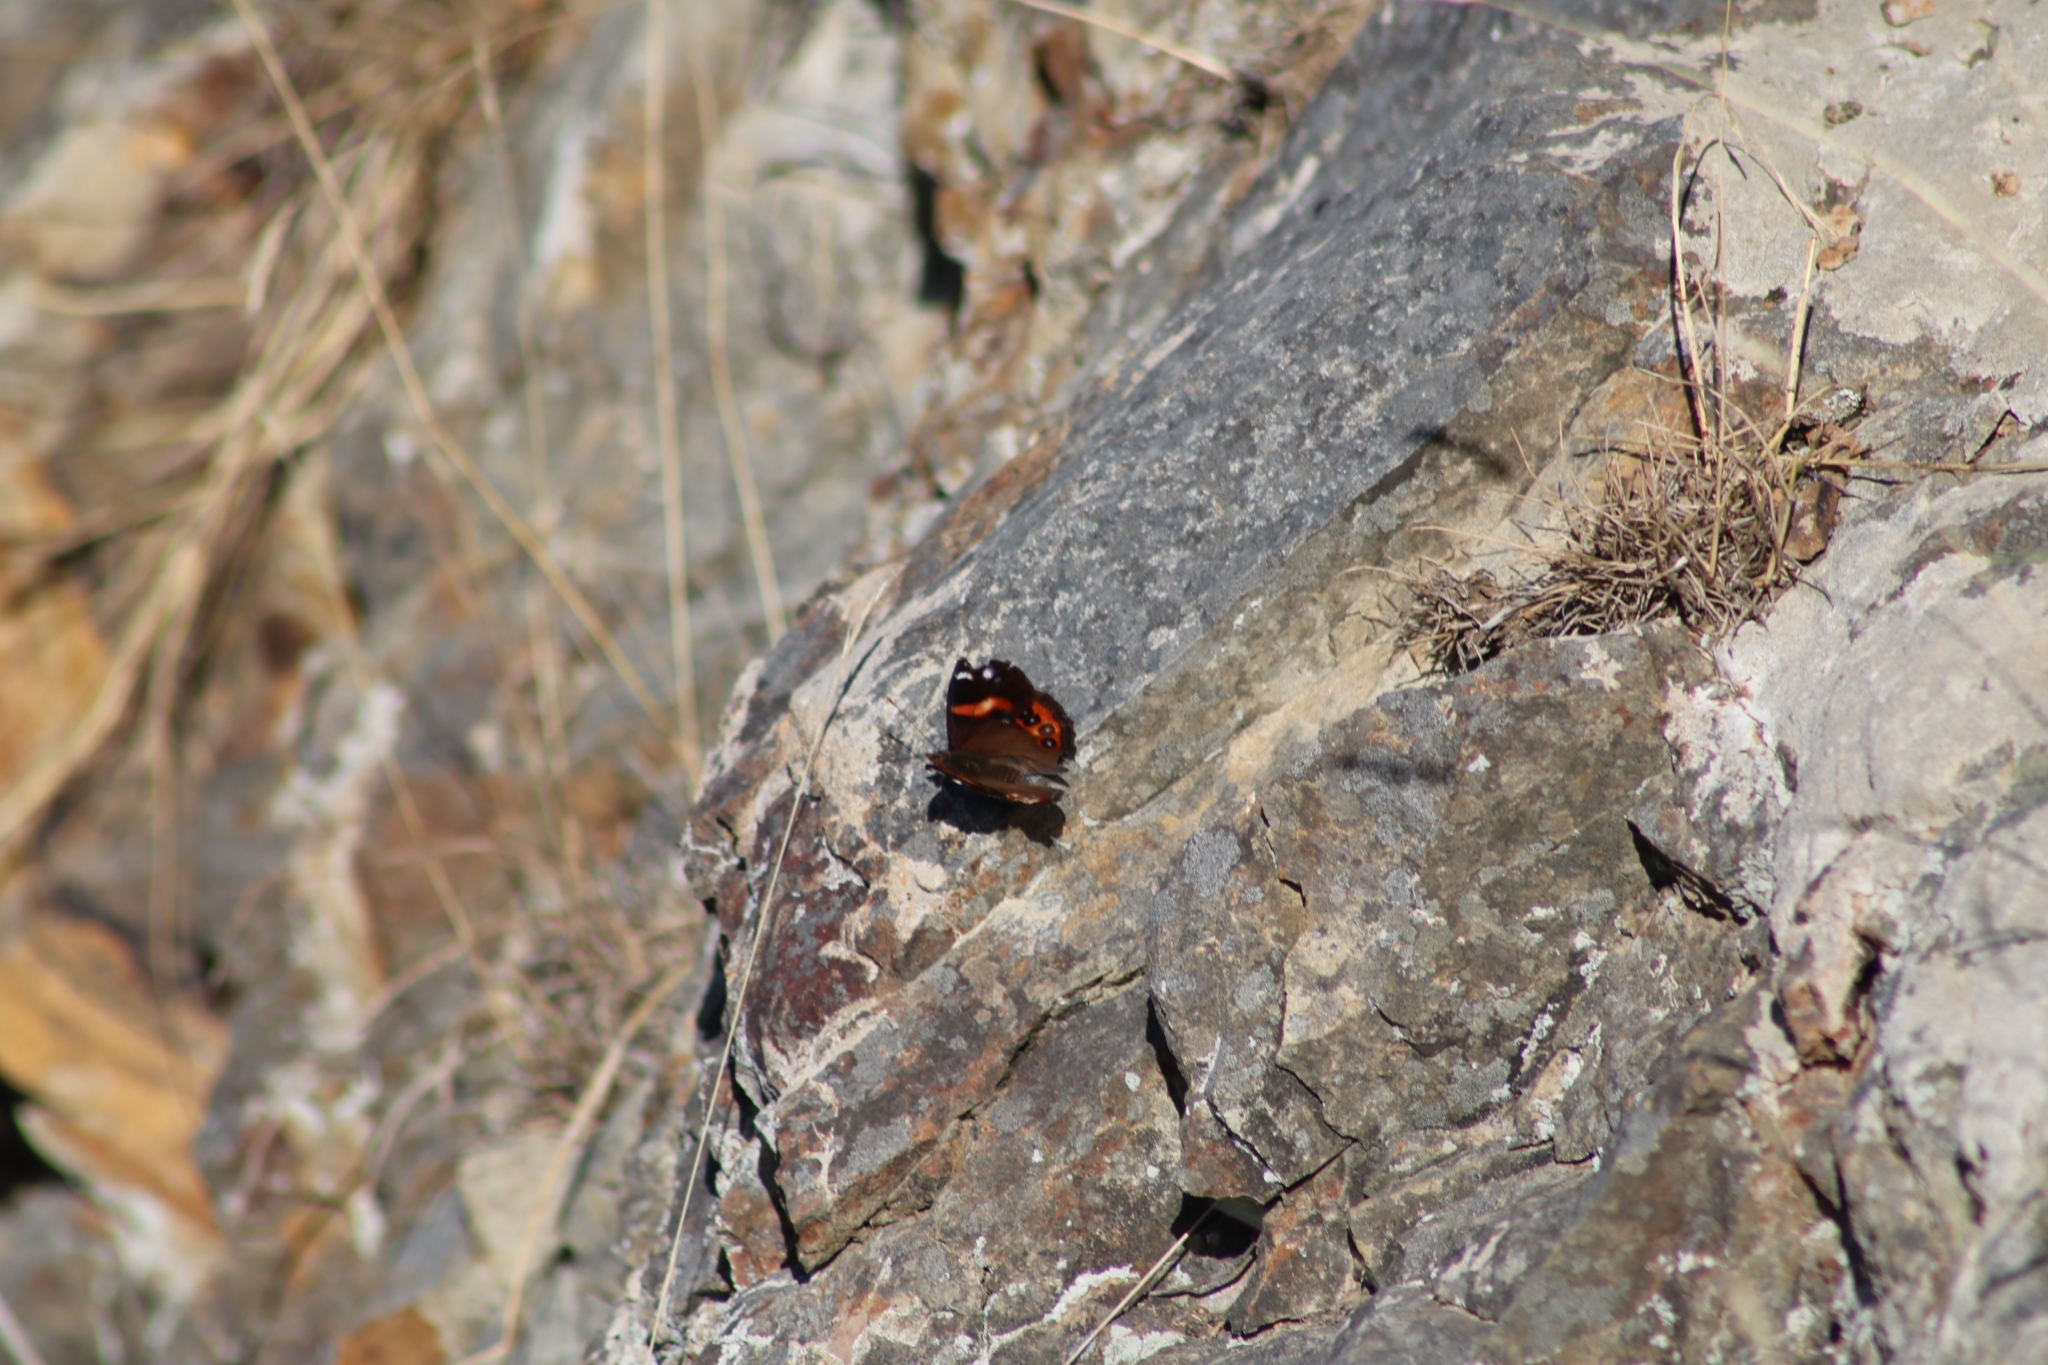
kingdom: Animalia
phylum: Arthropoda
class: Insecta
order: Lepidoptera
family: Nymphalidae
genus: Vanessa
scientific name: Vanessa gonerilla
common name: New zealand red admiral
